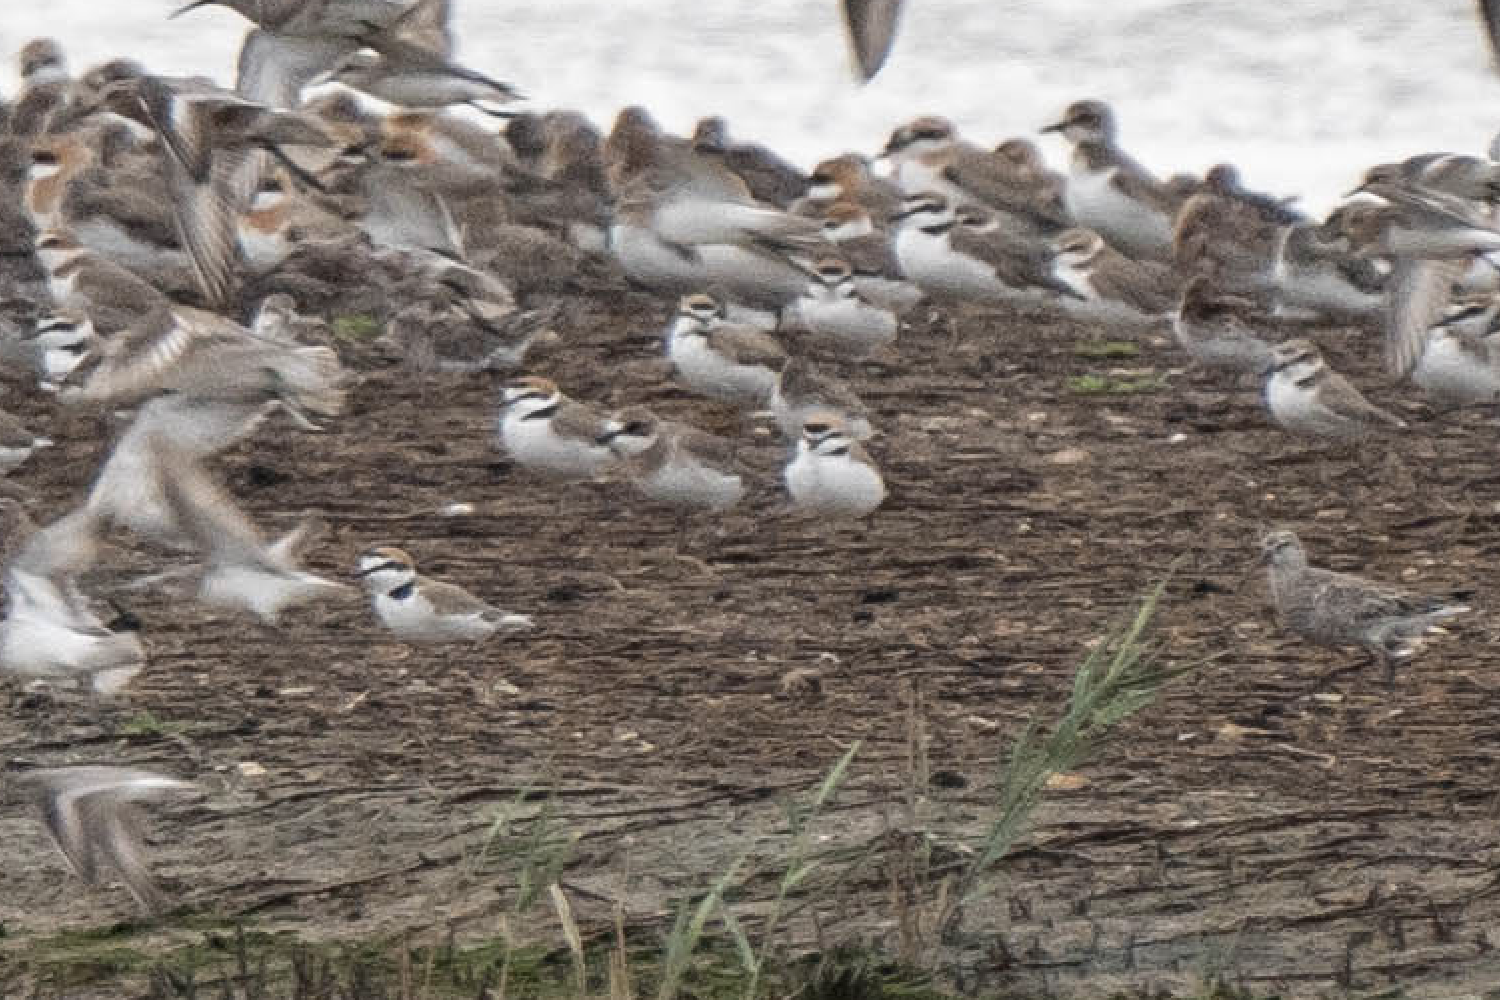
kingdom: Animalia
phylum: Chordata
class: Aves
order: Charadriiformes
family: Charadriidae
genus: Charadrius
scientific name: Charadrius alexandrinus
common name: Kentish plover
